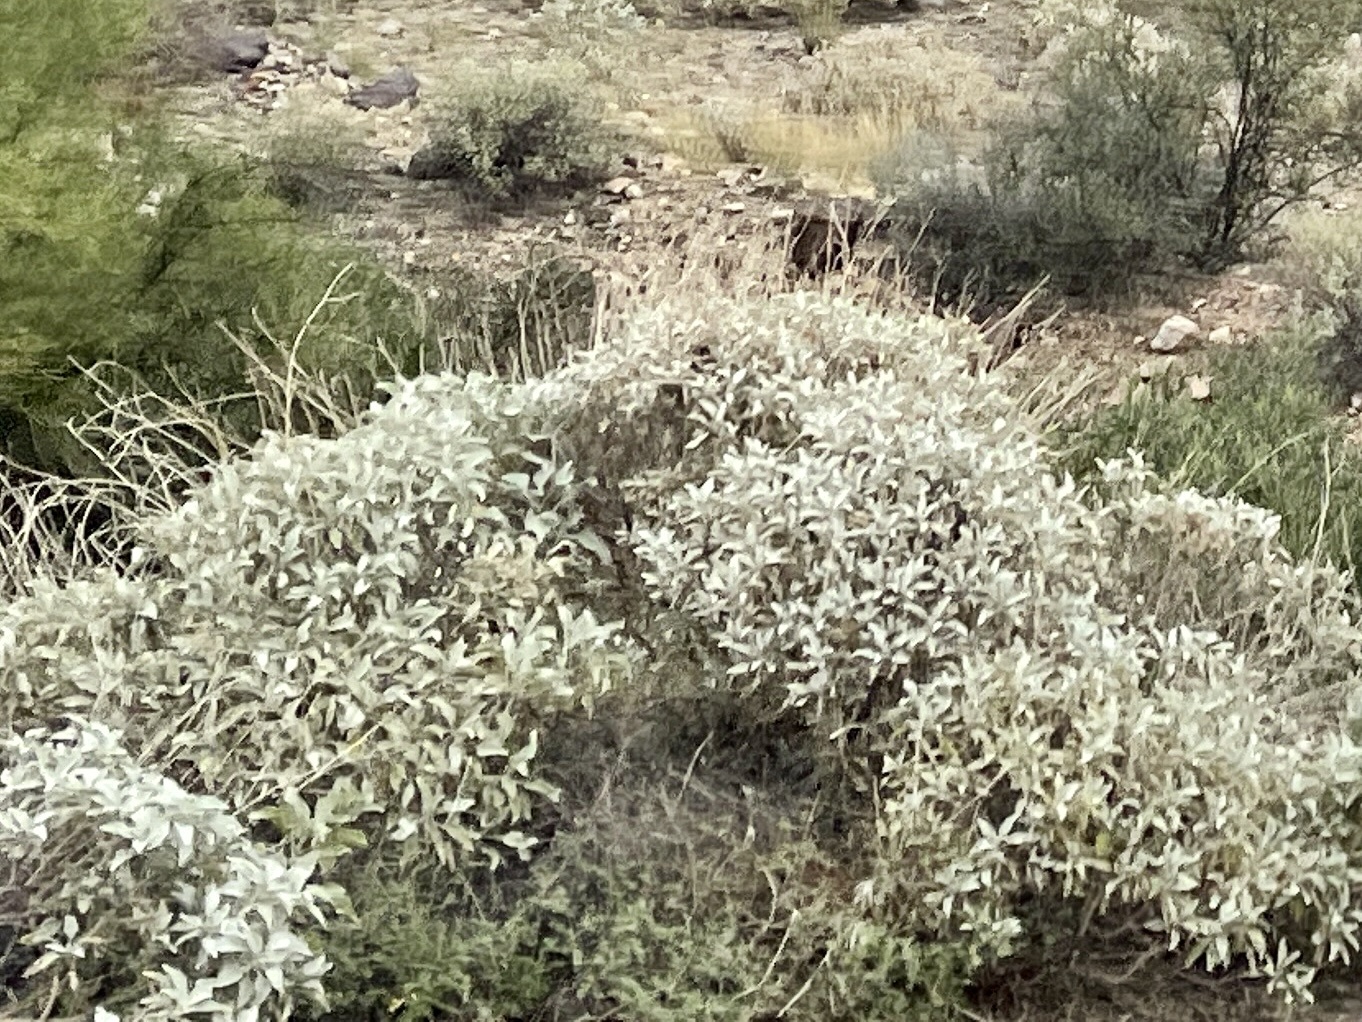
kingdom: Plantae
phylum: Tracheophyta
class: Magnoliopsida
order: Asterales
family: Asteraceae
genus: Encelia
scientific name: Encelia farinosa
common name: Brittlebush
